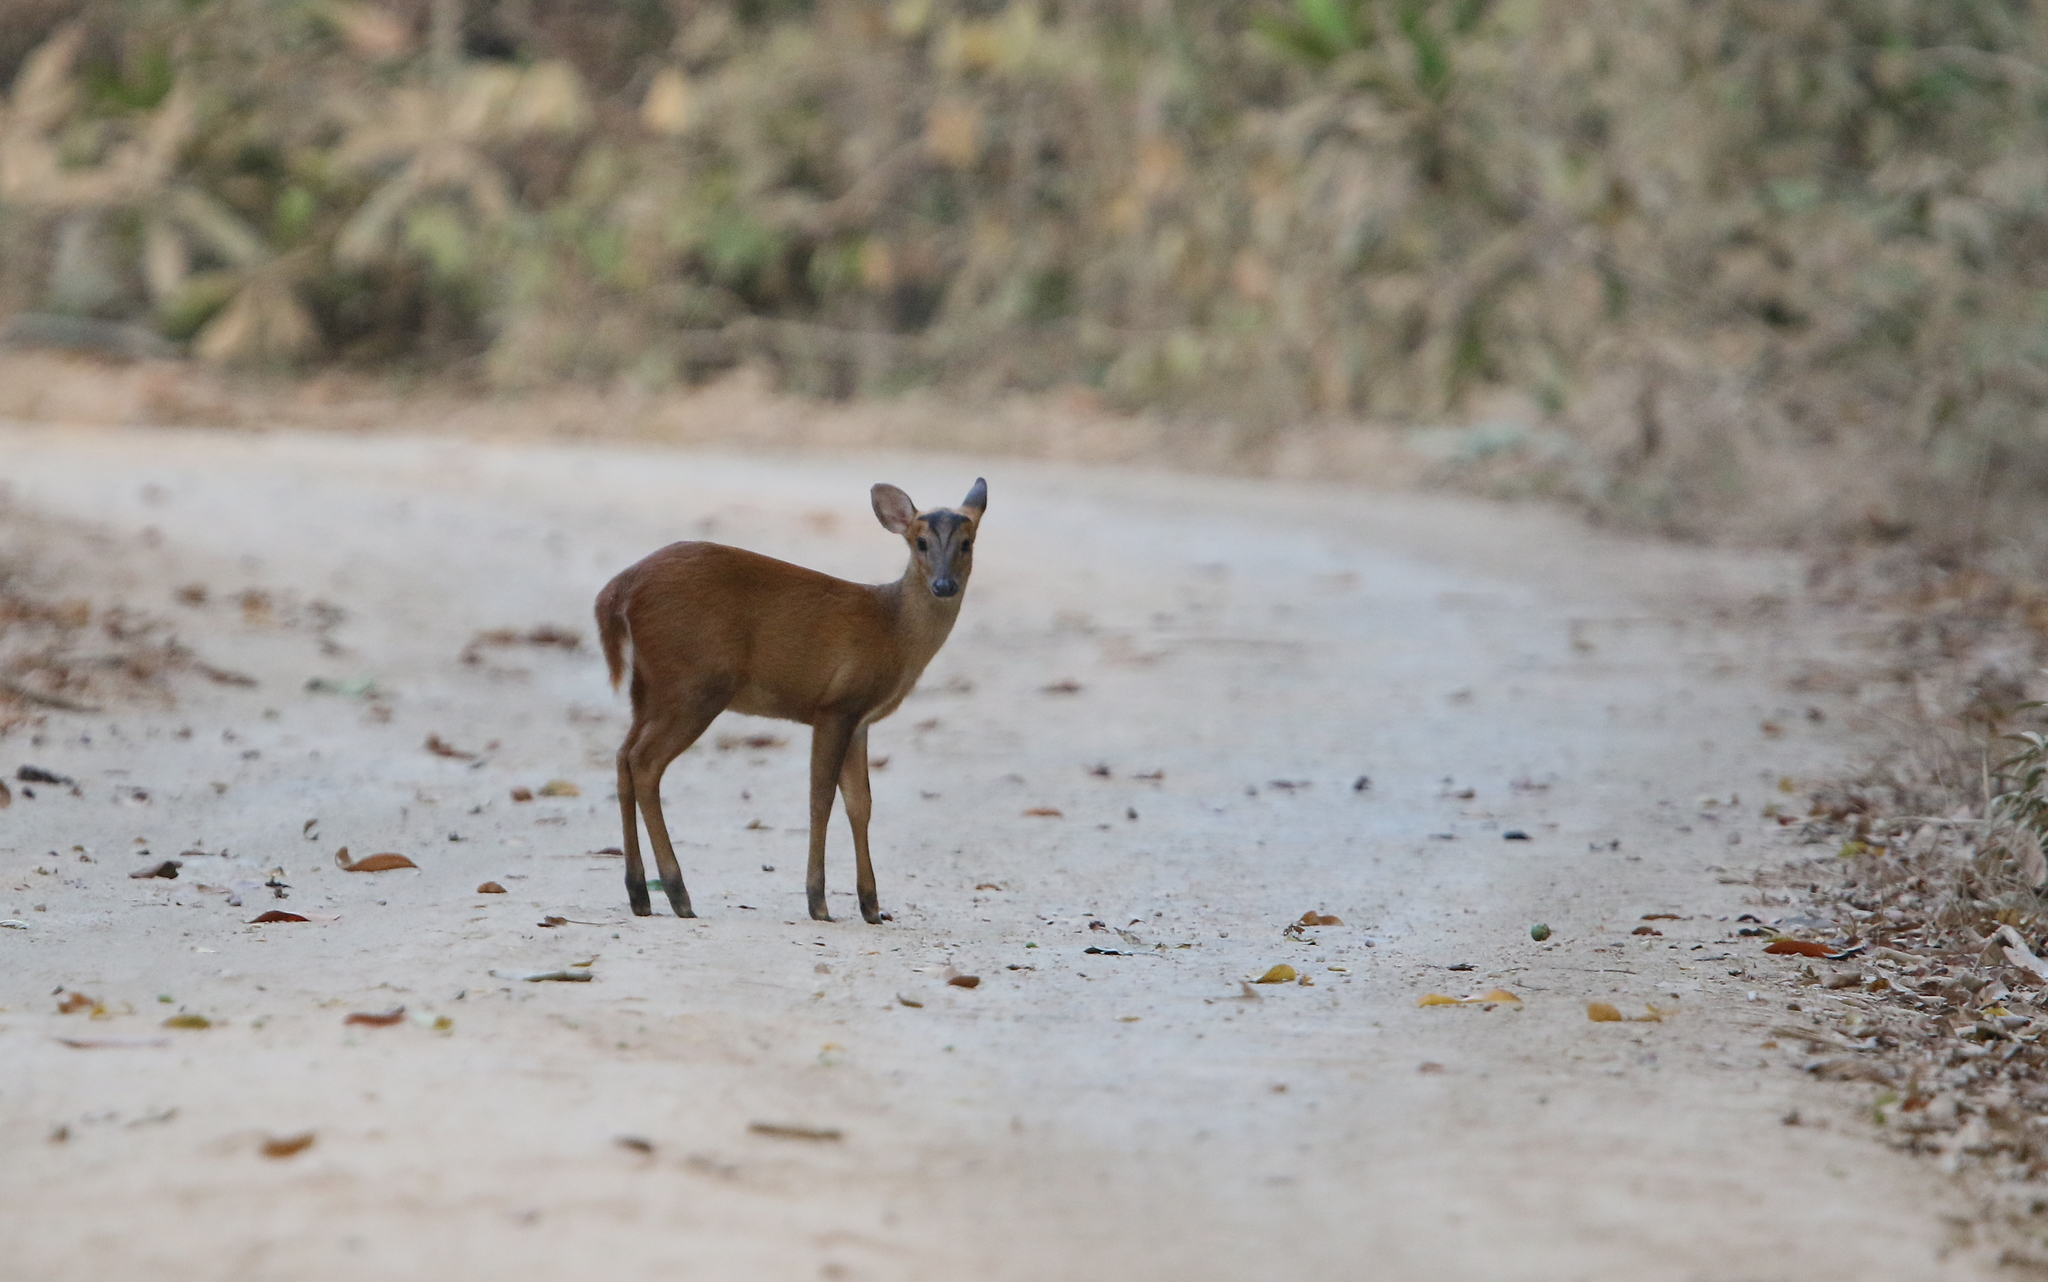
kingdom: Animalia
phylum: Chordata
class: Mammalia
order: Artiodactyla
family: Cervidae
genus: Muntiacus
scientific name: Muntiacus muntjak
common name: Indian muntjac
